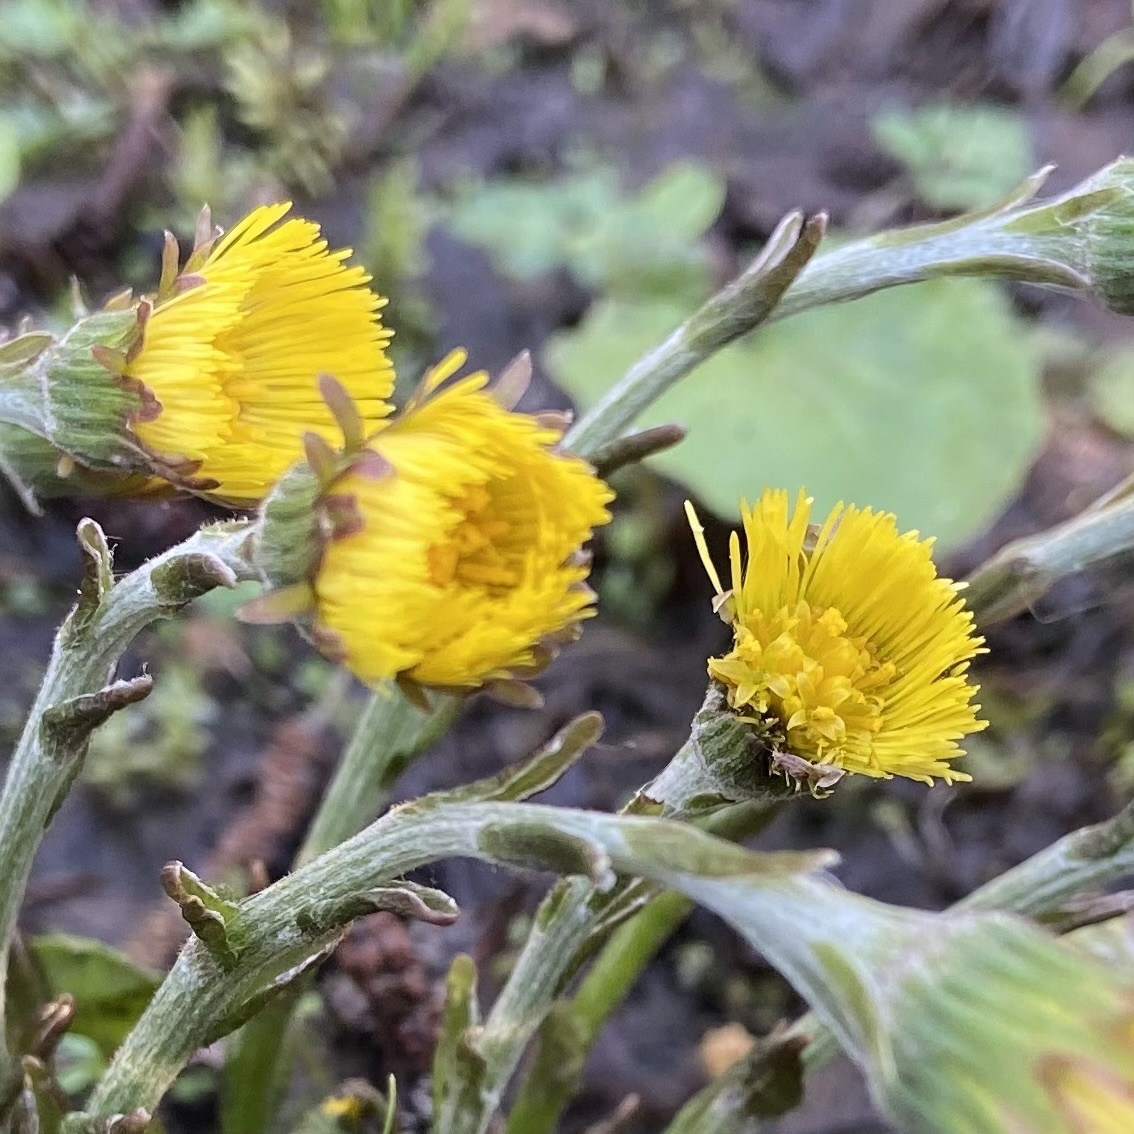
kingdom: Plantae
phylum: Tracheophyta
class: Magnoliopsida
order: Asterales
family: Asteraceae
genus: Tussilago
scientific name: Tussilago farfara
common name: Coltsfoot
